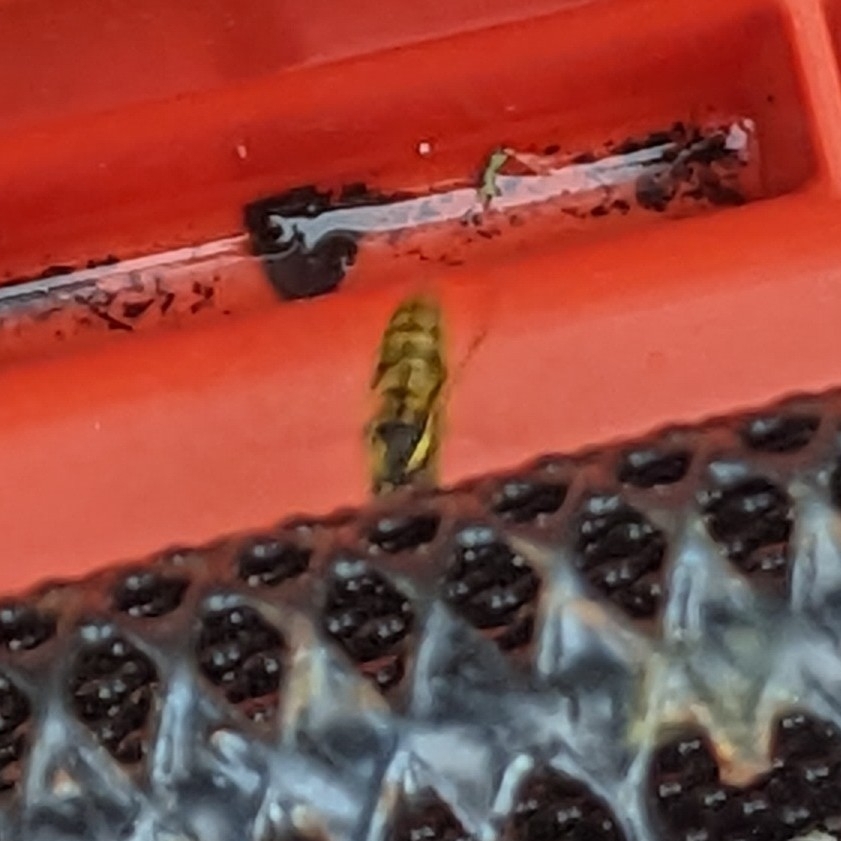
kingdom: Animalia
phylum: Arthropoda
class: Insecta
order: Hymenoptera
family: Vespidae
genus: Vespula
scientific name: Vespula
